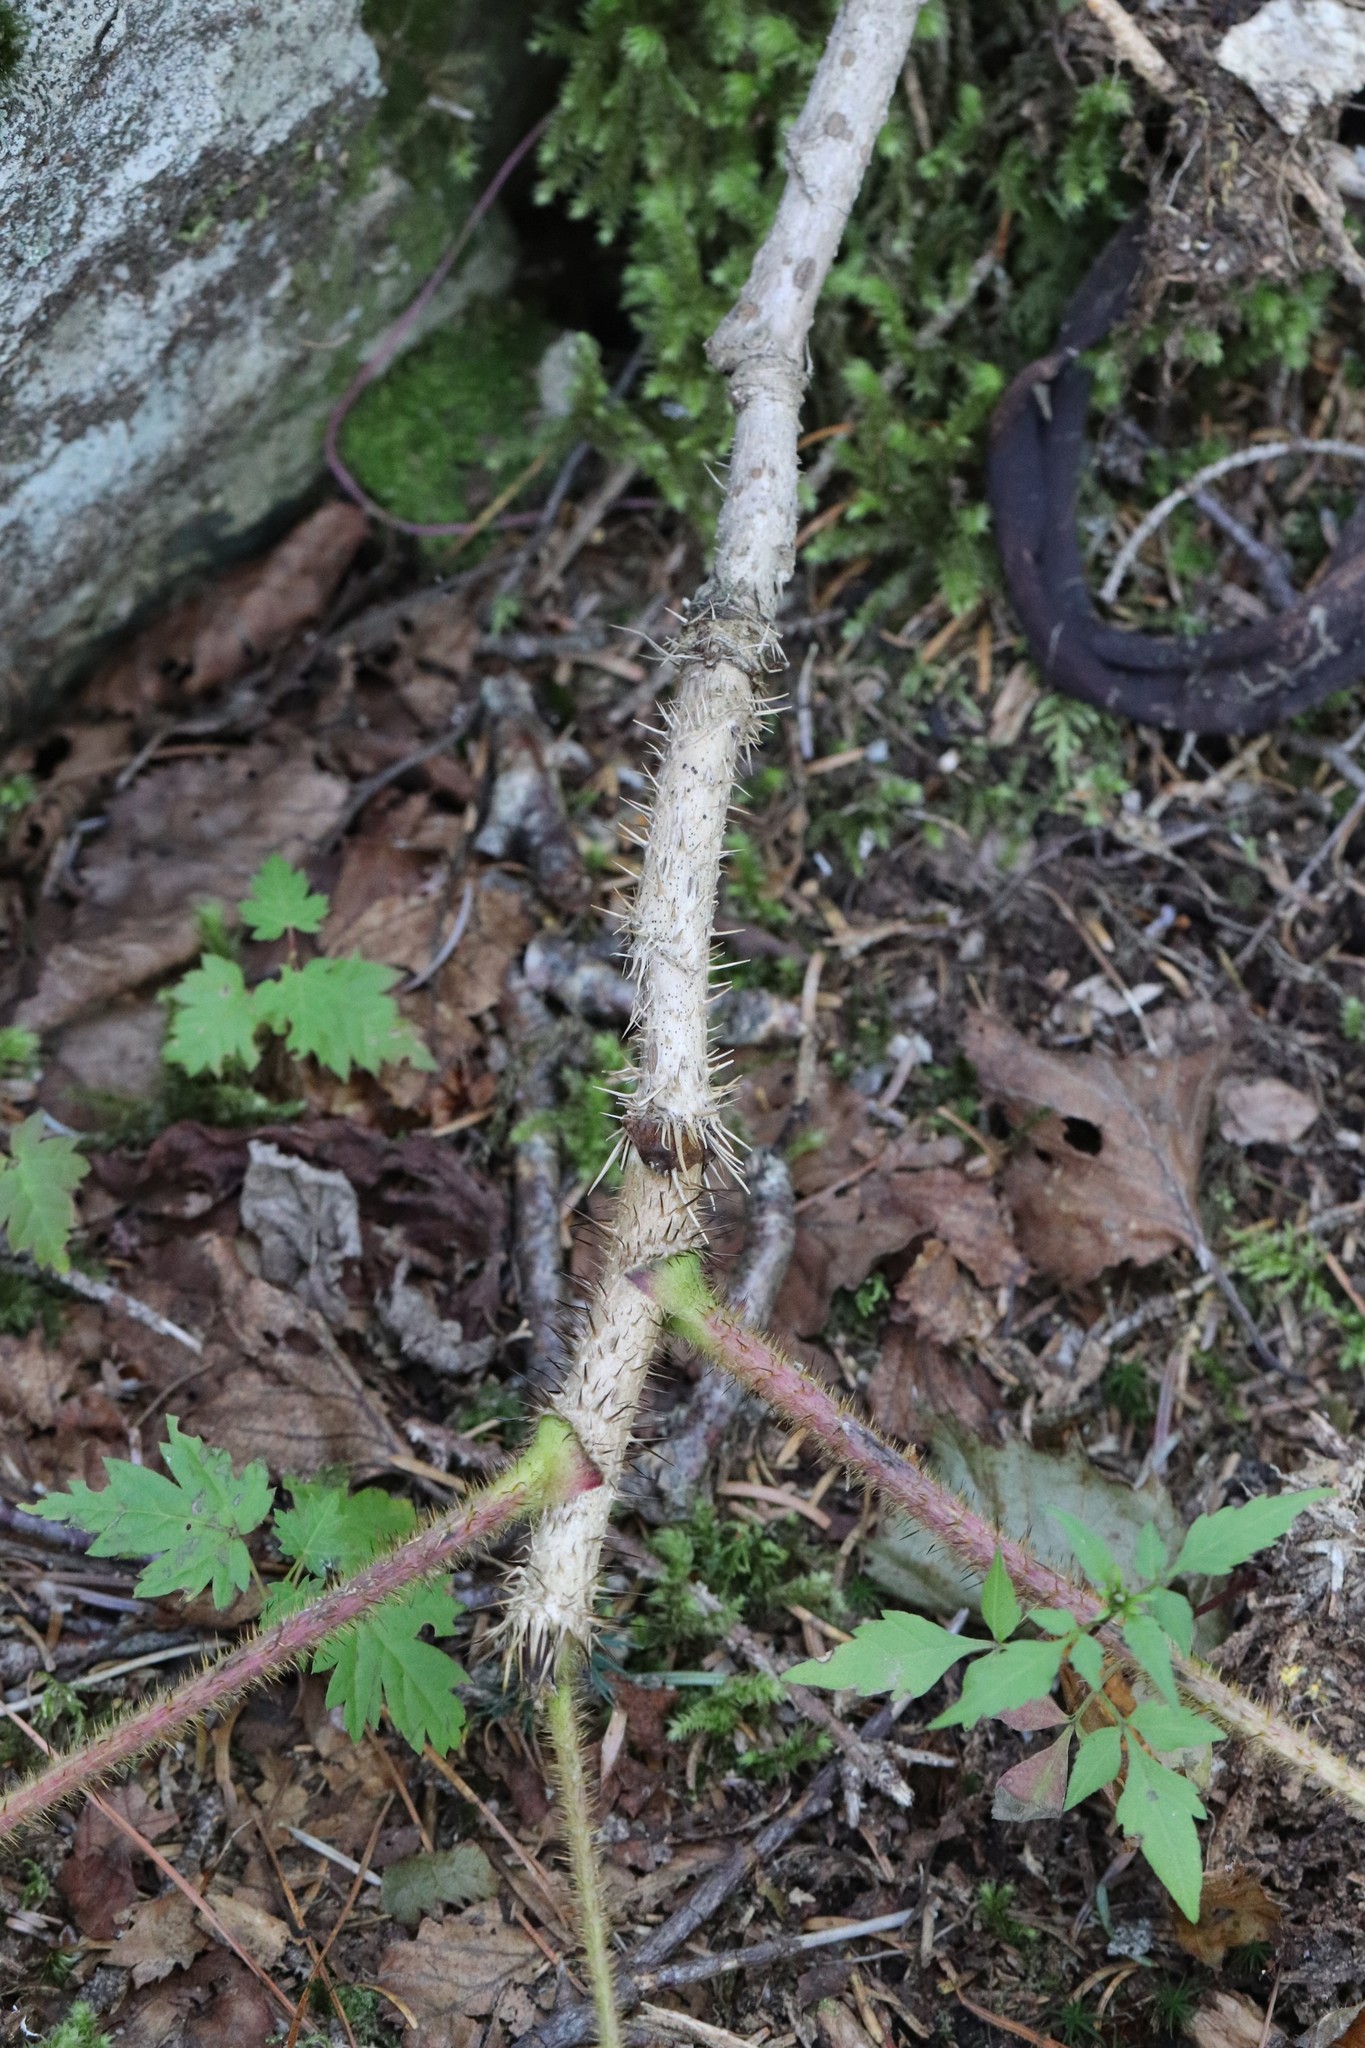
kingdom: Plantae
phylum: Tracheophyta
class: Magnoliopsida
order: Apiales
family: Araliaceae
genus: Oplopanax
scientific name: Oplopanax elatus
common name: Japanese devil's-club
